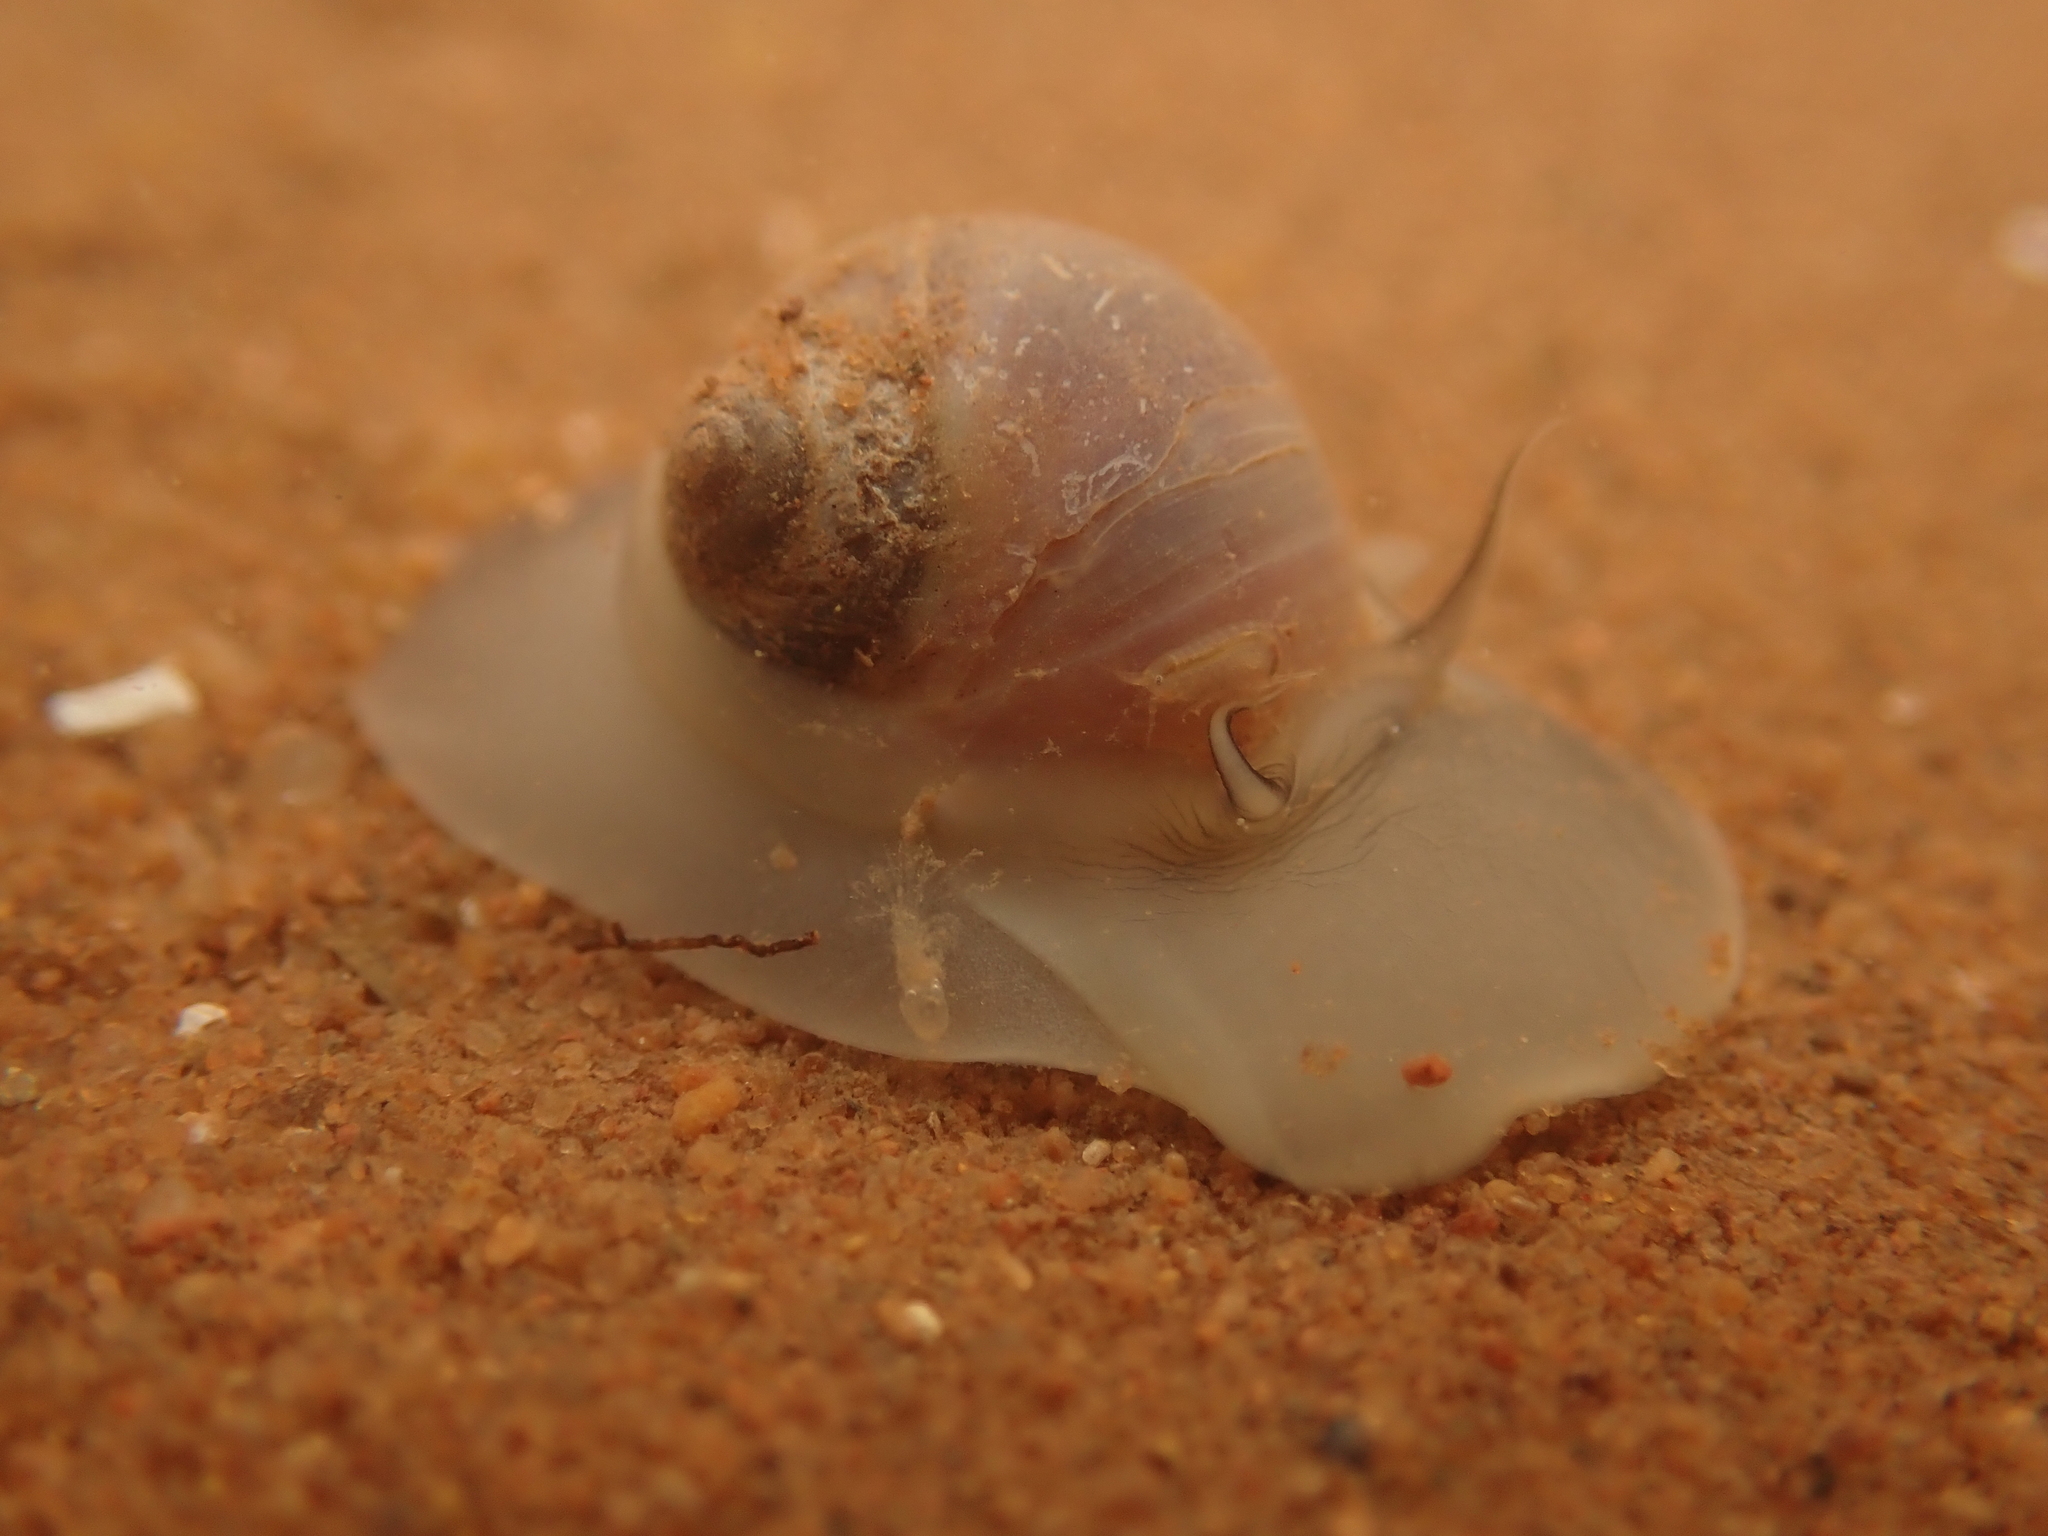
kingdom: Animalia
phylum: Mollusca
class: Gastropoda
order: Littorinimorpha
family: Naticidae
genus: Euspira
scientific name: Euspira heros
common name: Common northern moonsnail
